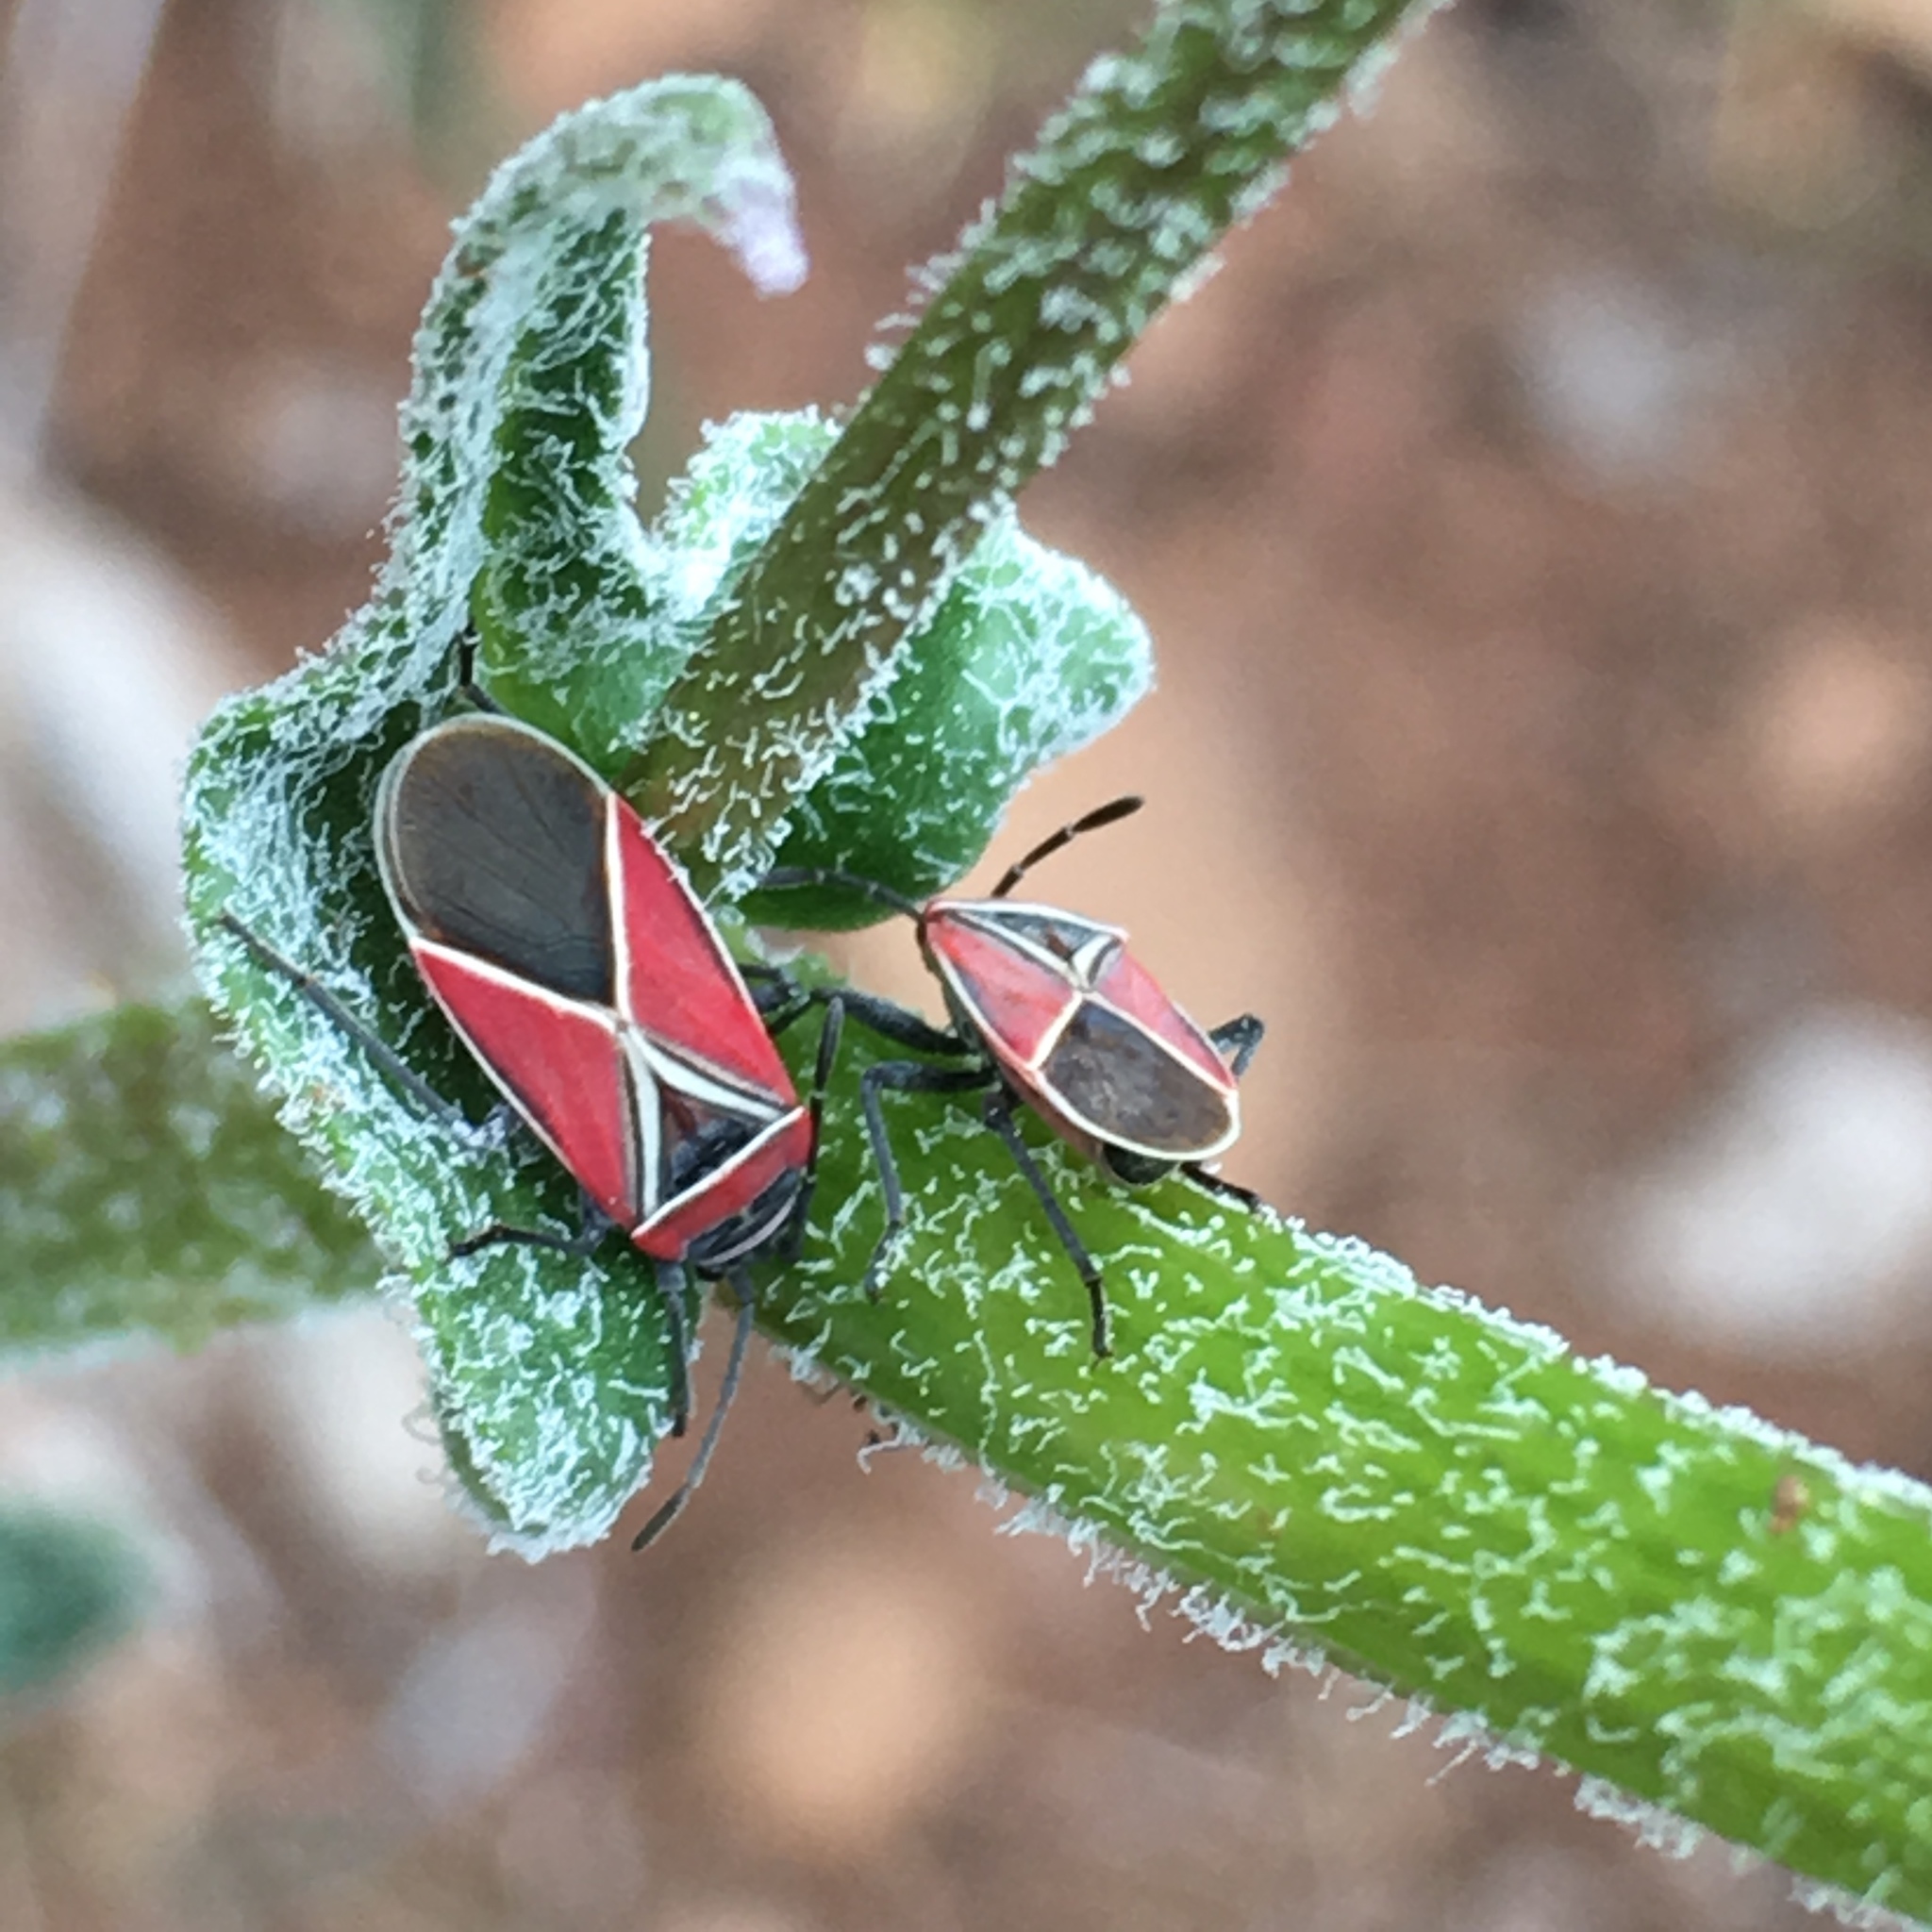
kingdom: Animalia
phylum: Arthropoda
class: Insecta
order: Hemiptera
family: Lygaeidae
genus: Neacoryphus
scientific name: Neacoryphus bicrucis
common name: Lygaeid bug
